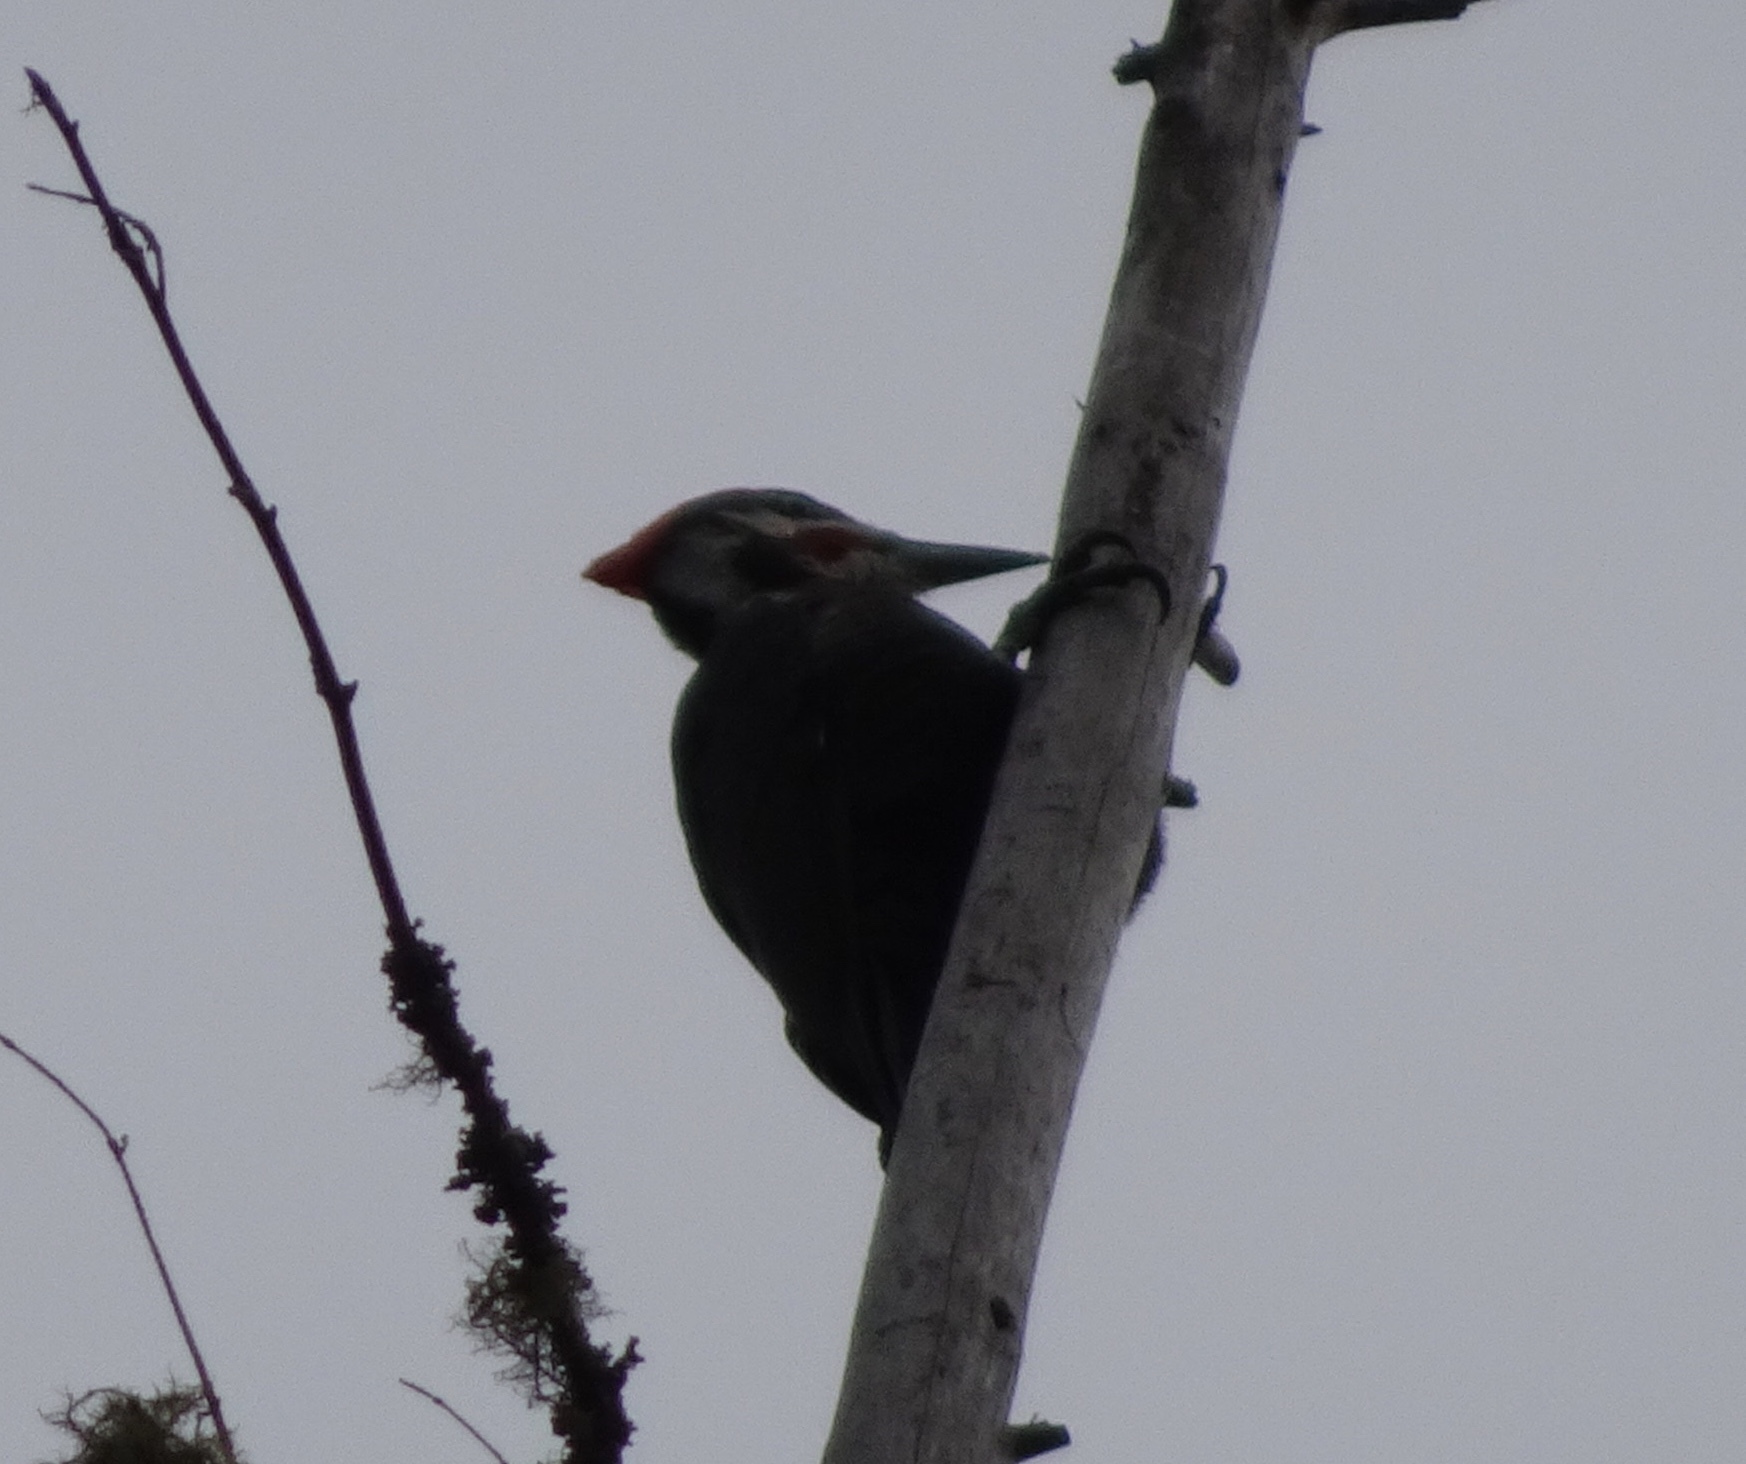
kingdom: Animalia
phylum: Chordata
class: Aves
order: Piciformes
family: Picidae
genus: Dryocopus
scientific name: Dryocopus pileatus
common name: Pileated woodpecker
